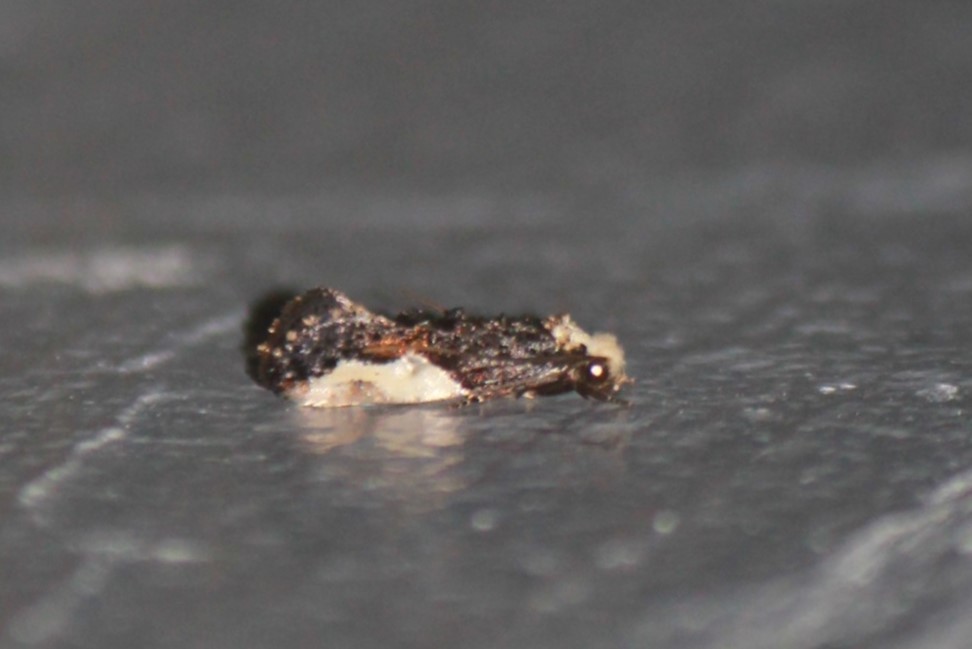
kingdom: Animalia
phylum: Arthropoda
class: Insecta
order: Lepidoptera
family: Tineidae
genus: Monopis
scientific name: Monopis longella
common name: Pavlovski's monopis moth
